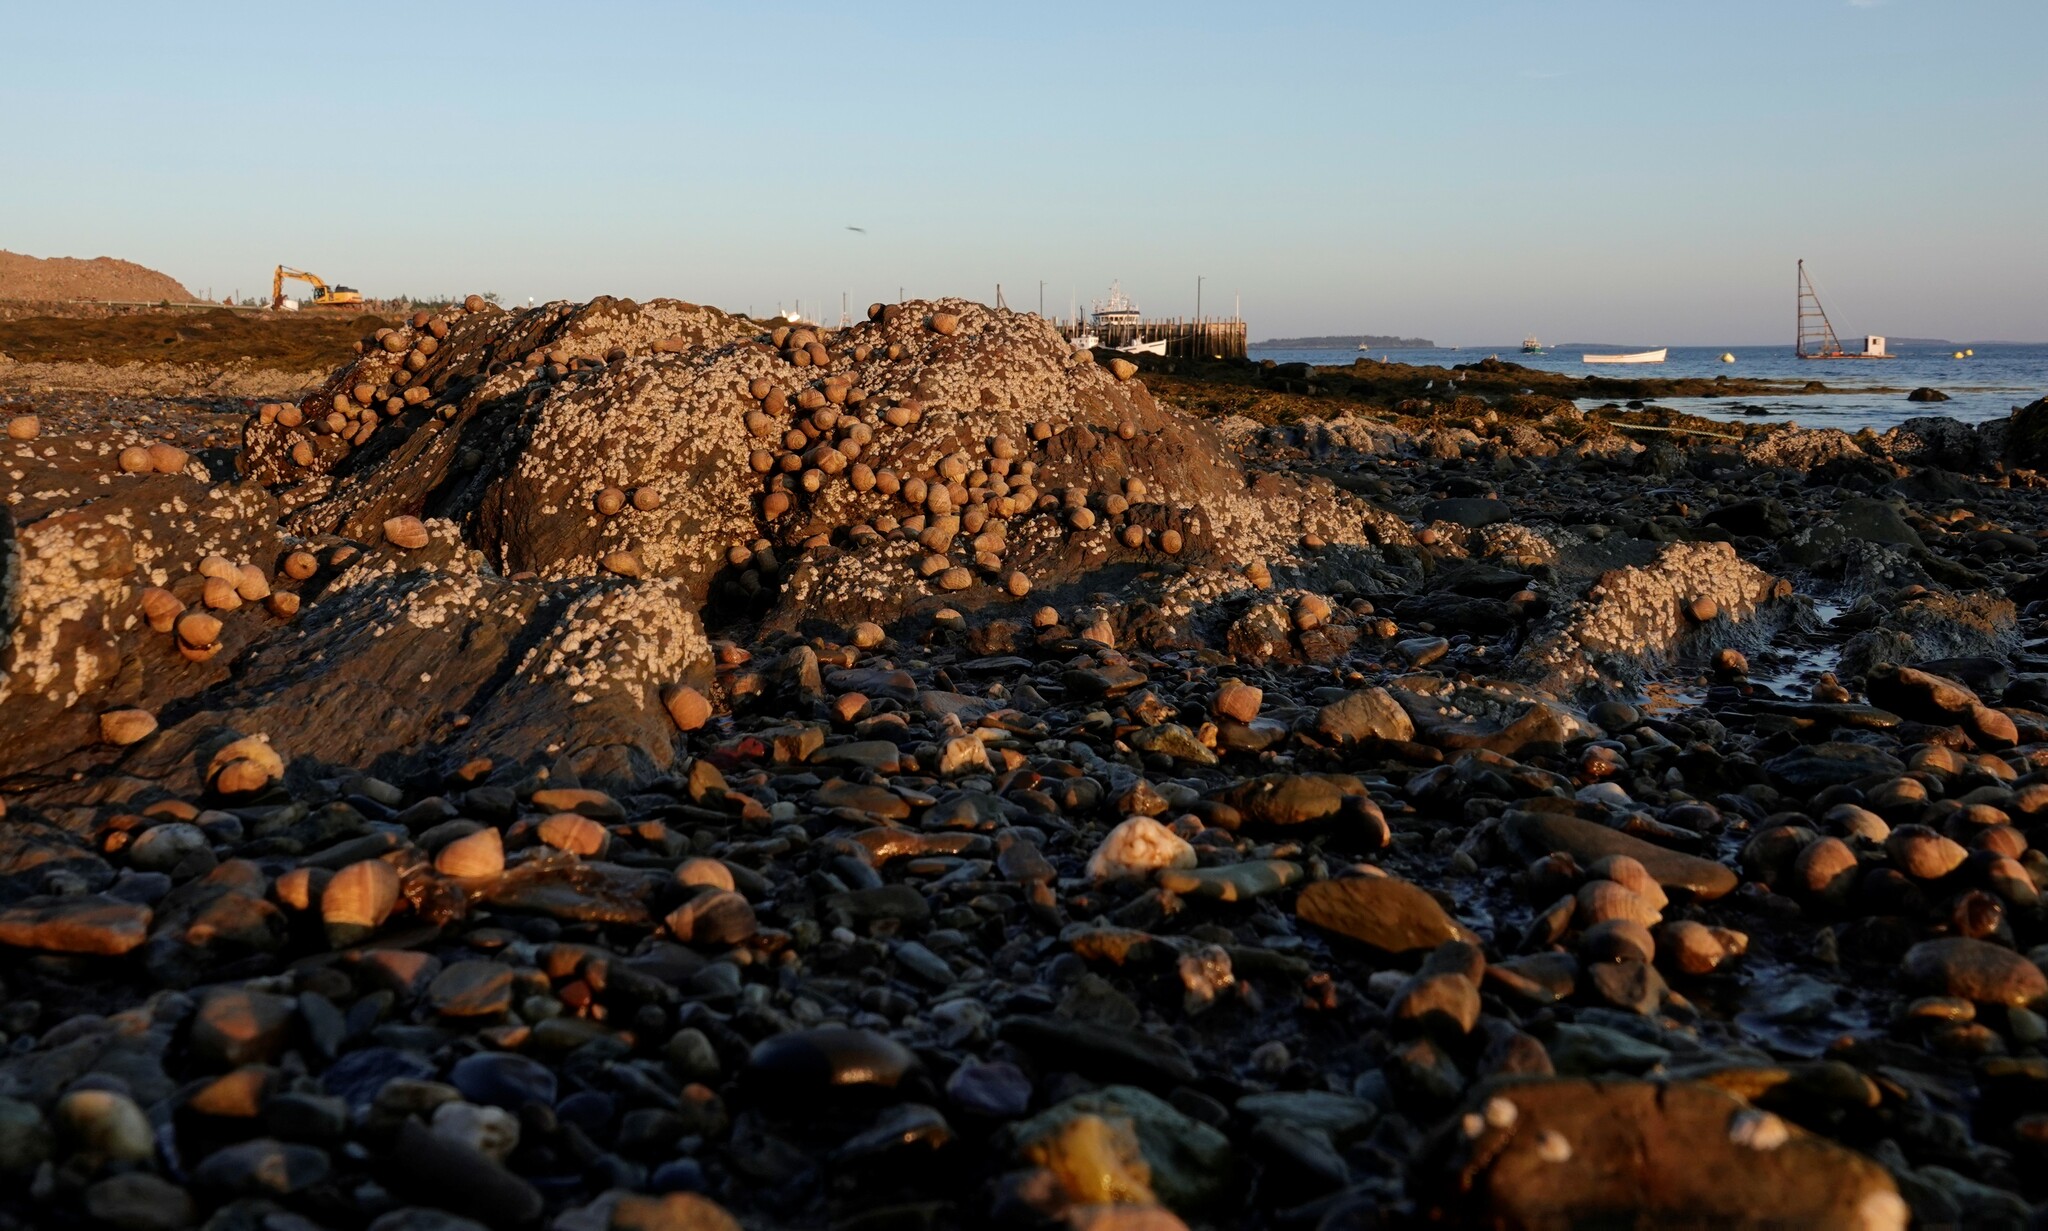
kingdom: Animalia
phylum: Mollusca
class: Gastropoda
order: Littorinimorpha
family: Littorinidae
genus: Littorina
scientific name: Littorina littorea
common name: Common periwinkle
